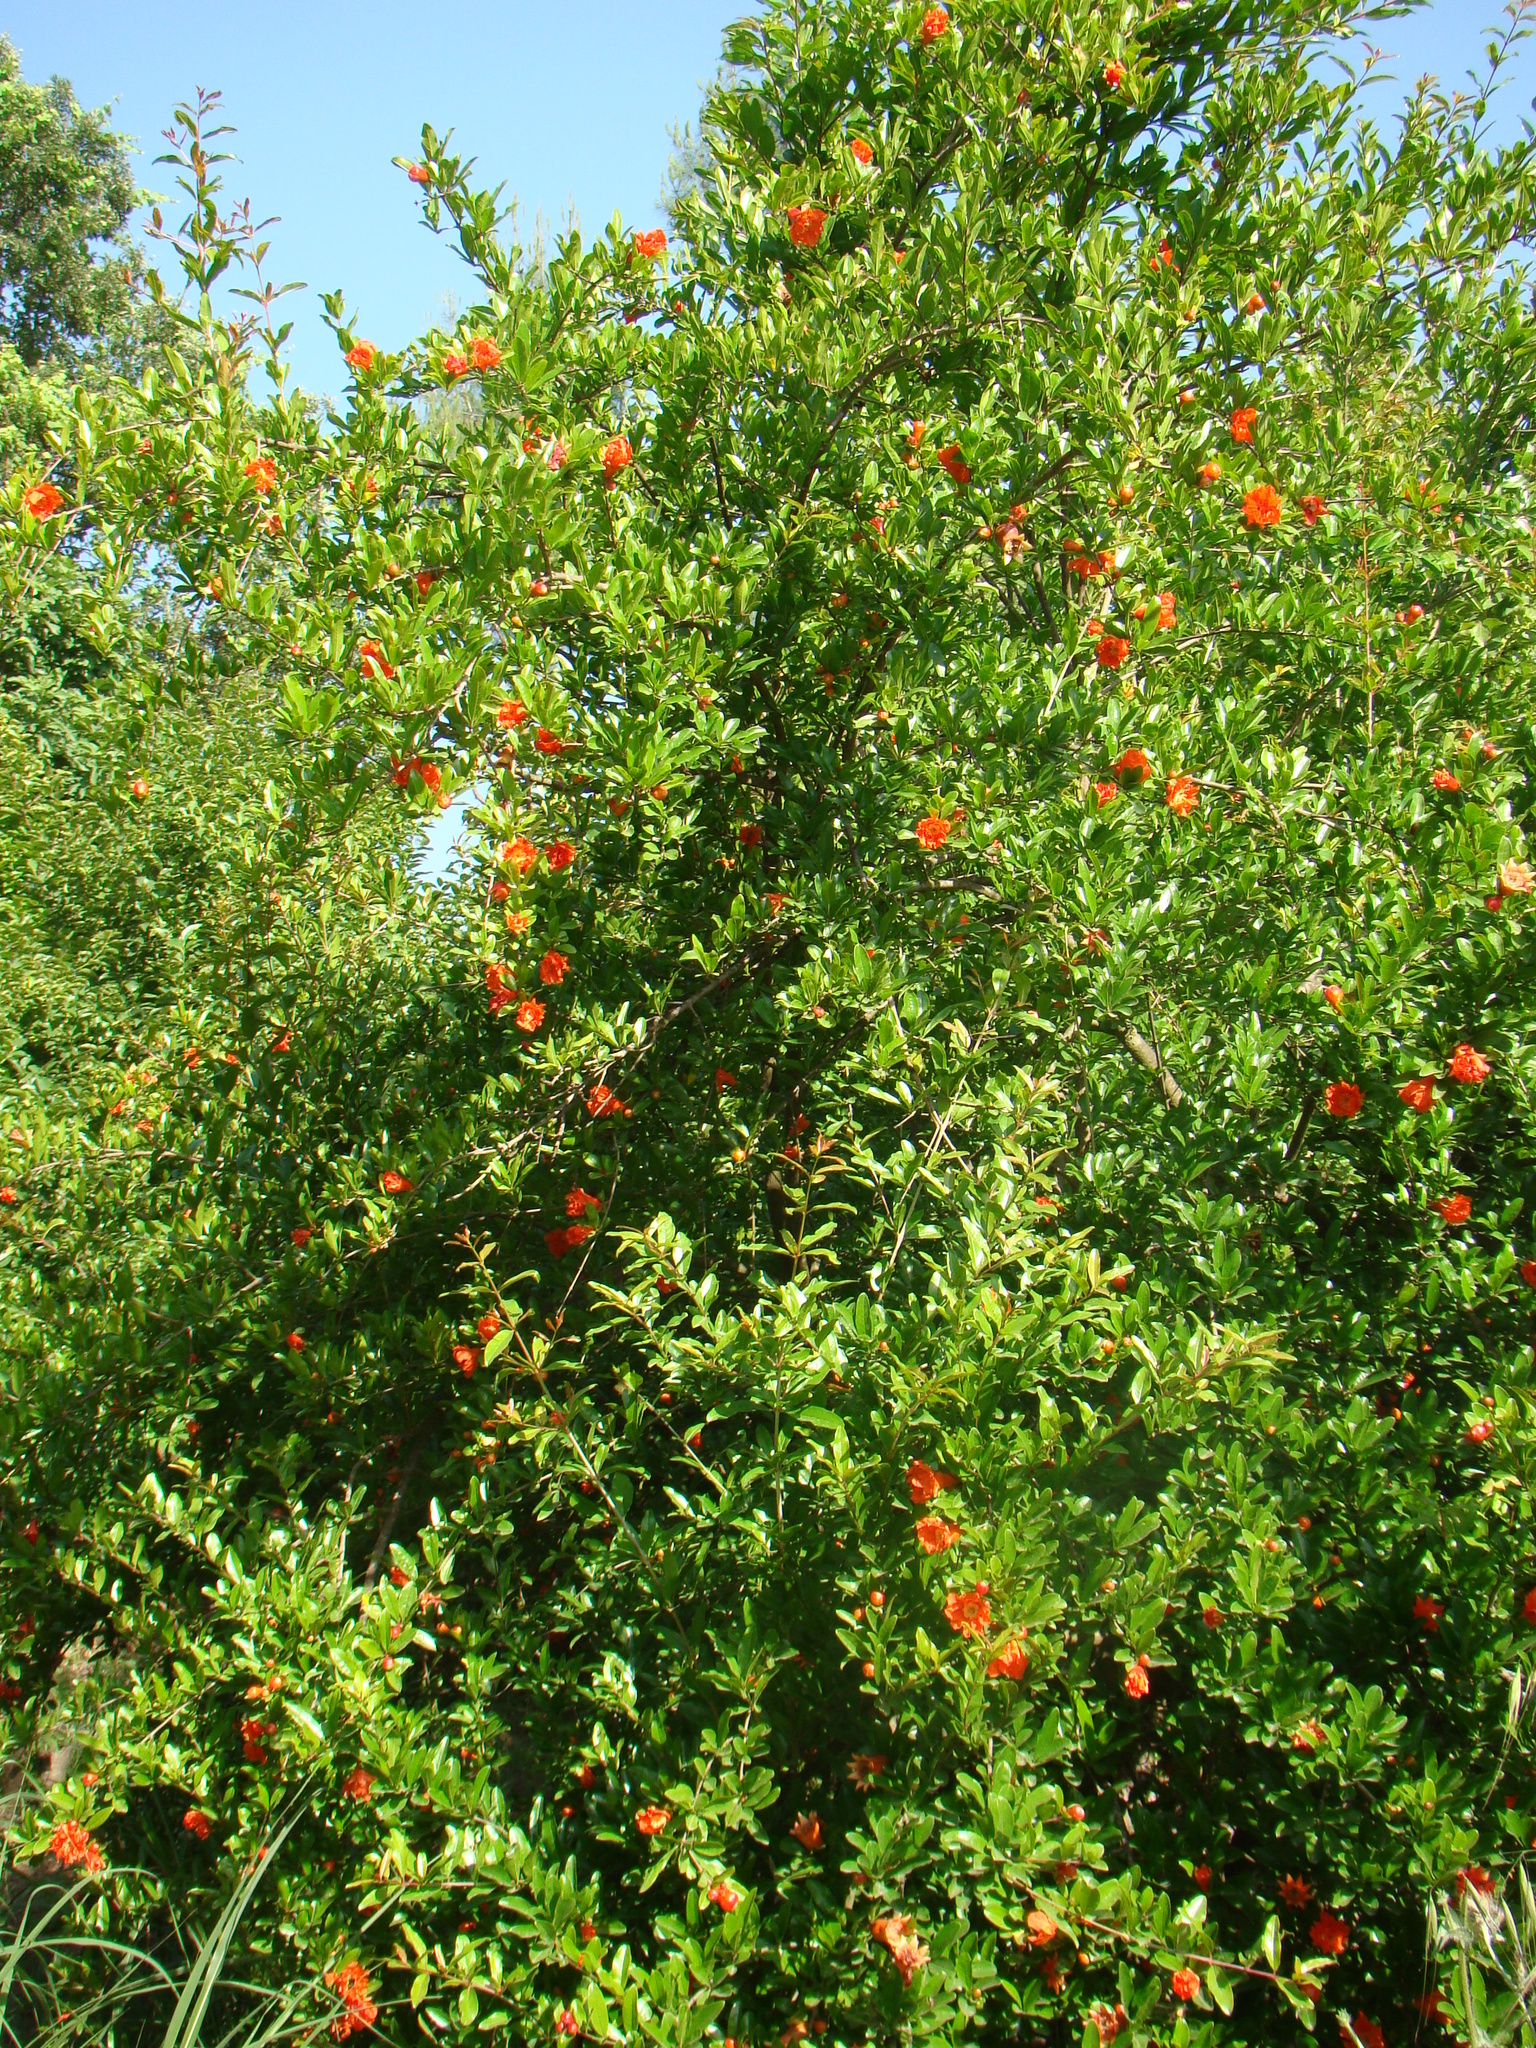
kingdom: Plantae
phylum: Tracheophyta
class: Magnoliopsida
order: Myrtales
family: Lythraceae
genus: Punica
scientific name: Punica granatum
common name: Pomegranate
